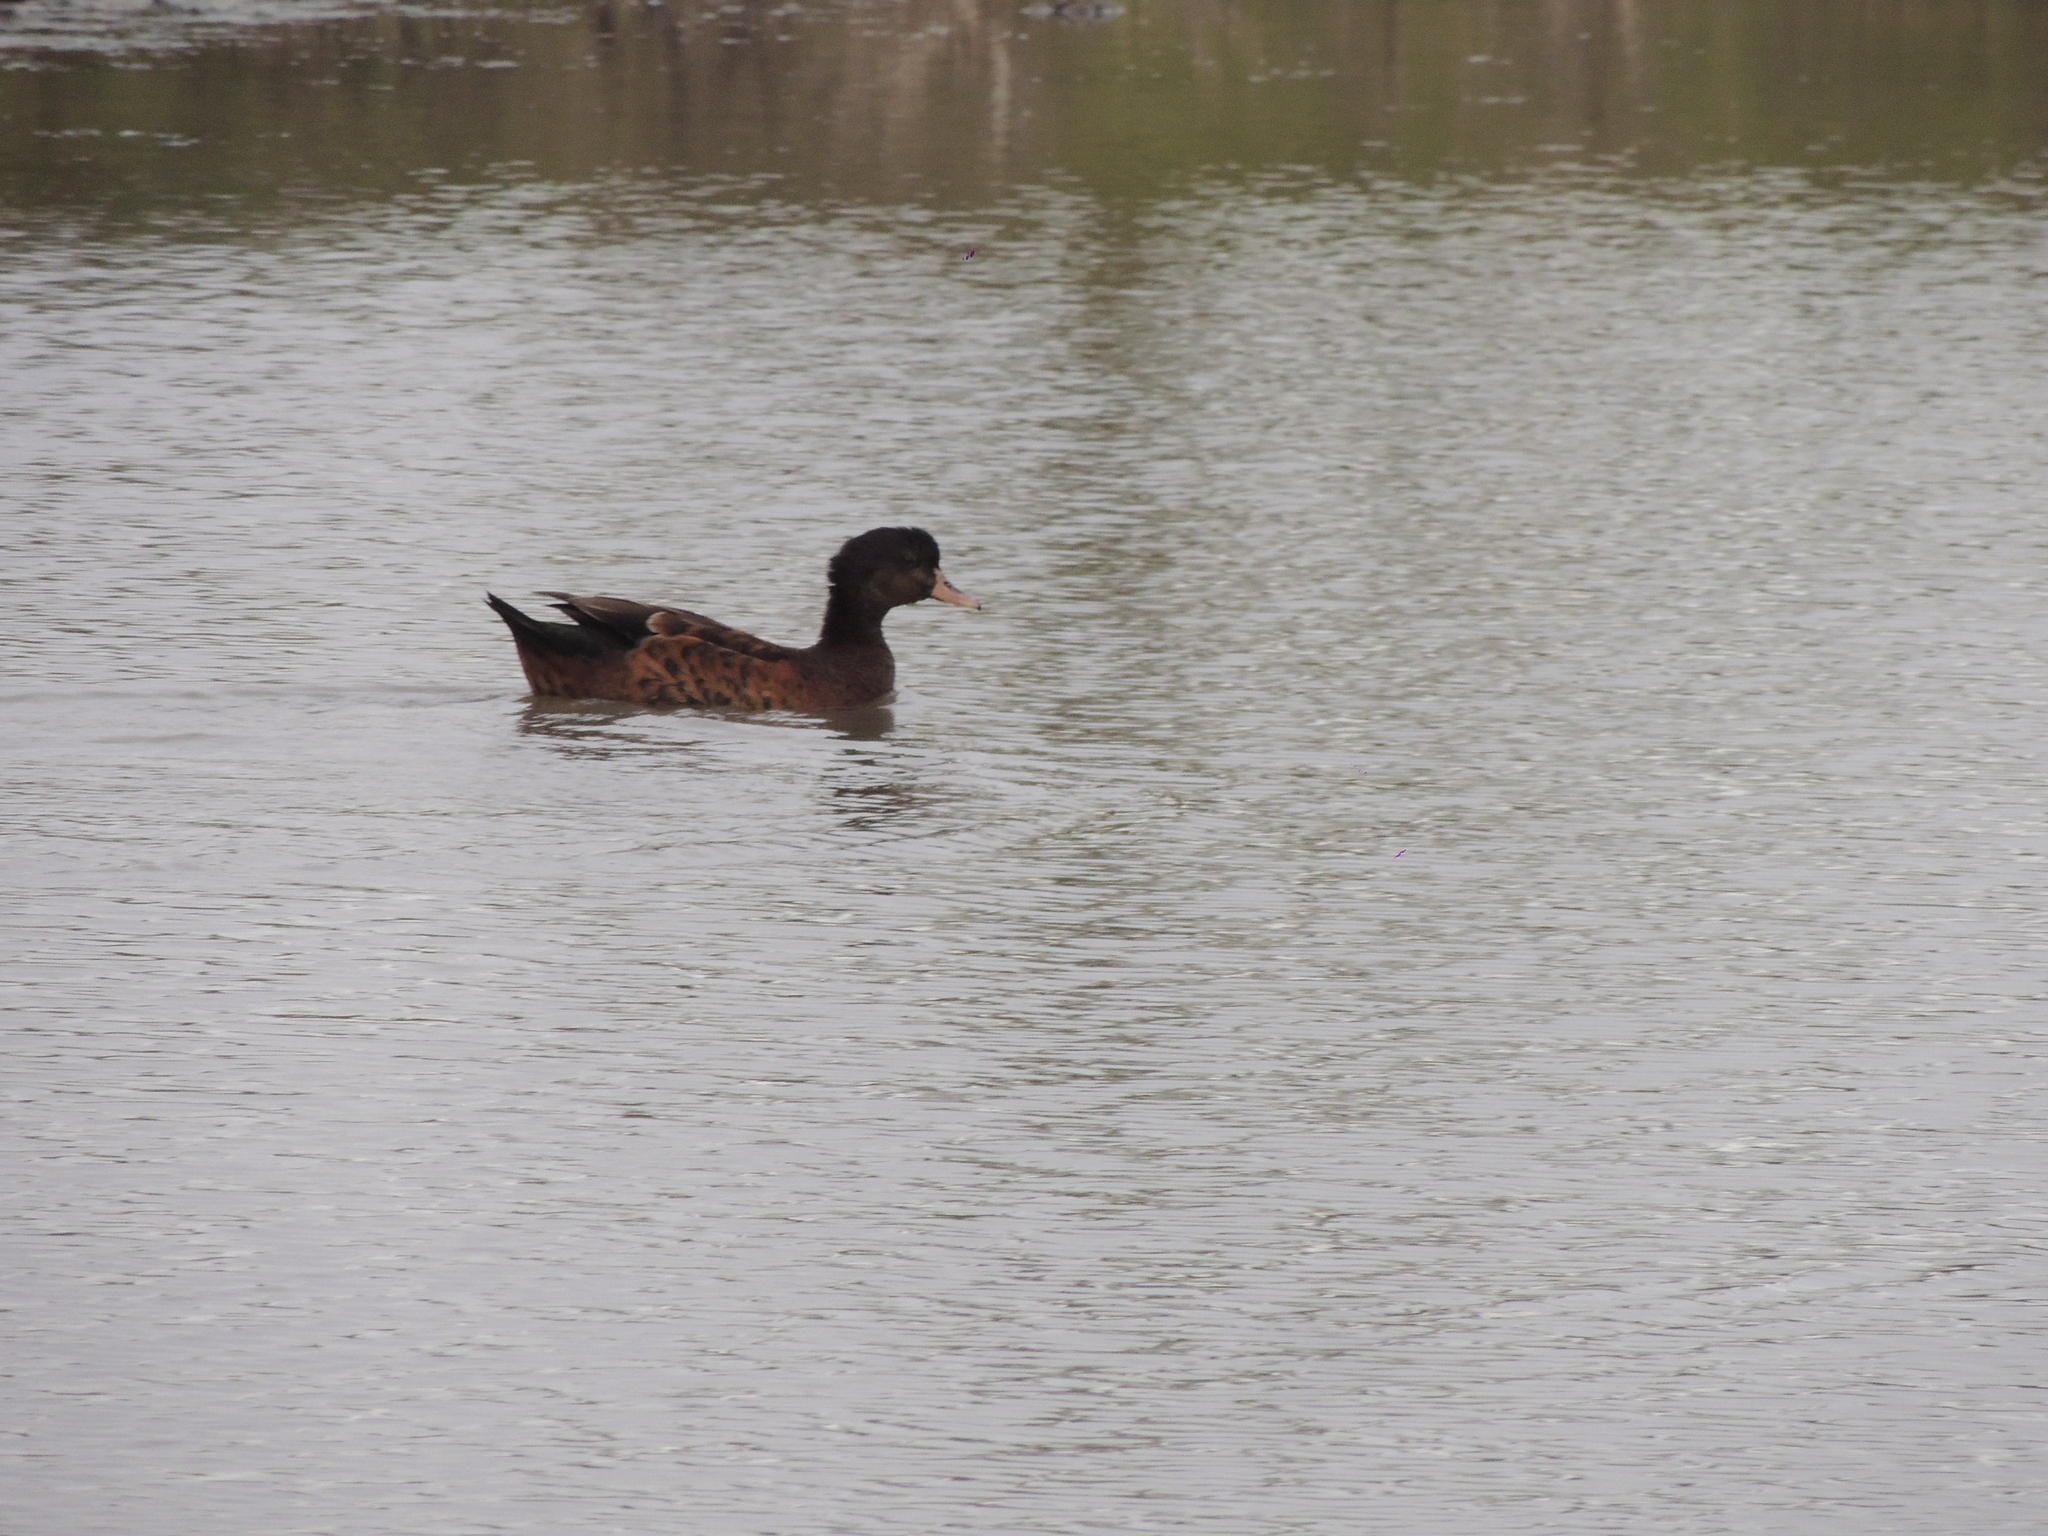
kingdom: Animalia
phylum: Chordata
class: Aves
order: Anseriformes
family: Anatidae
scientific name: Anatidae
